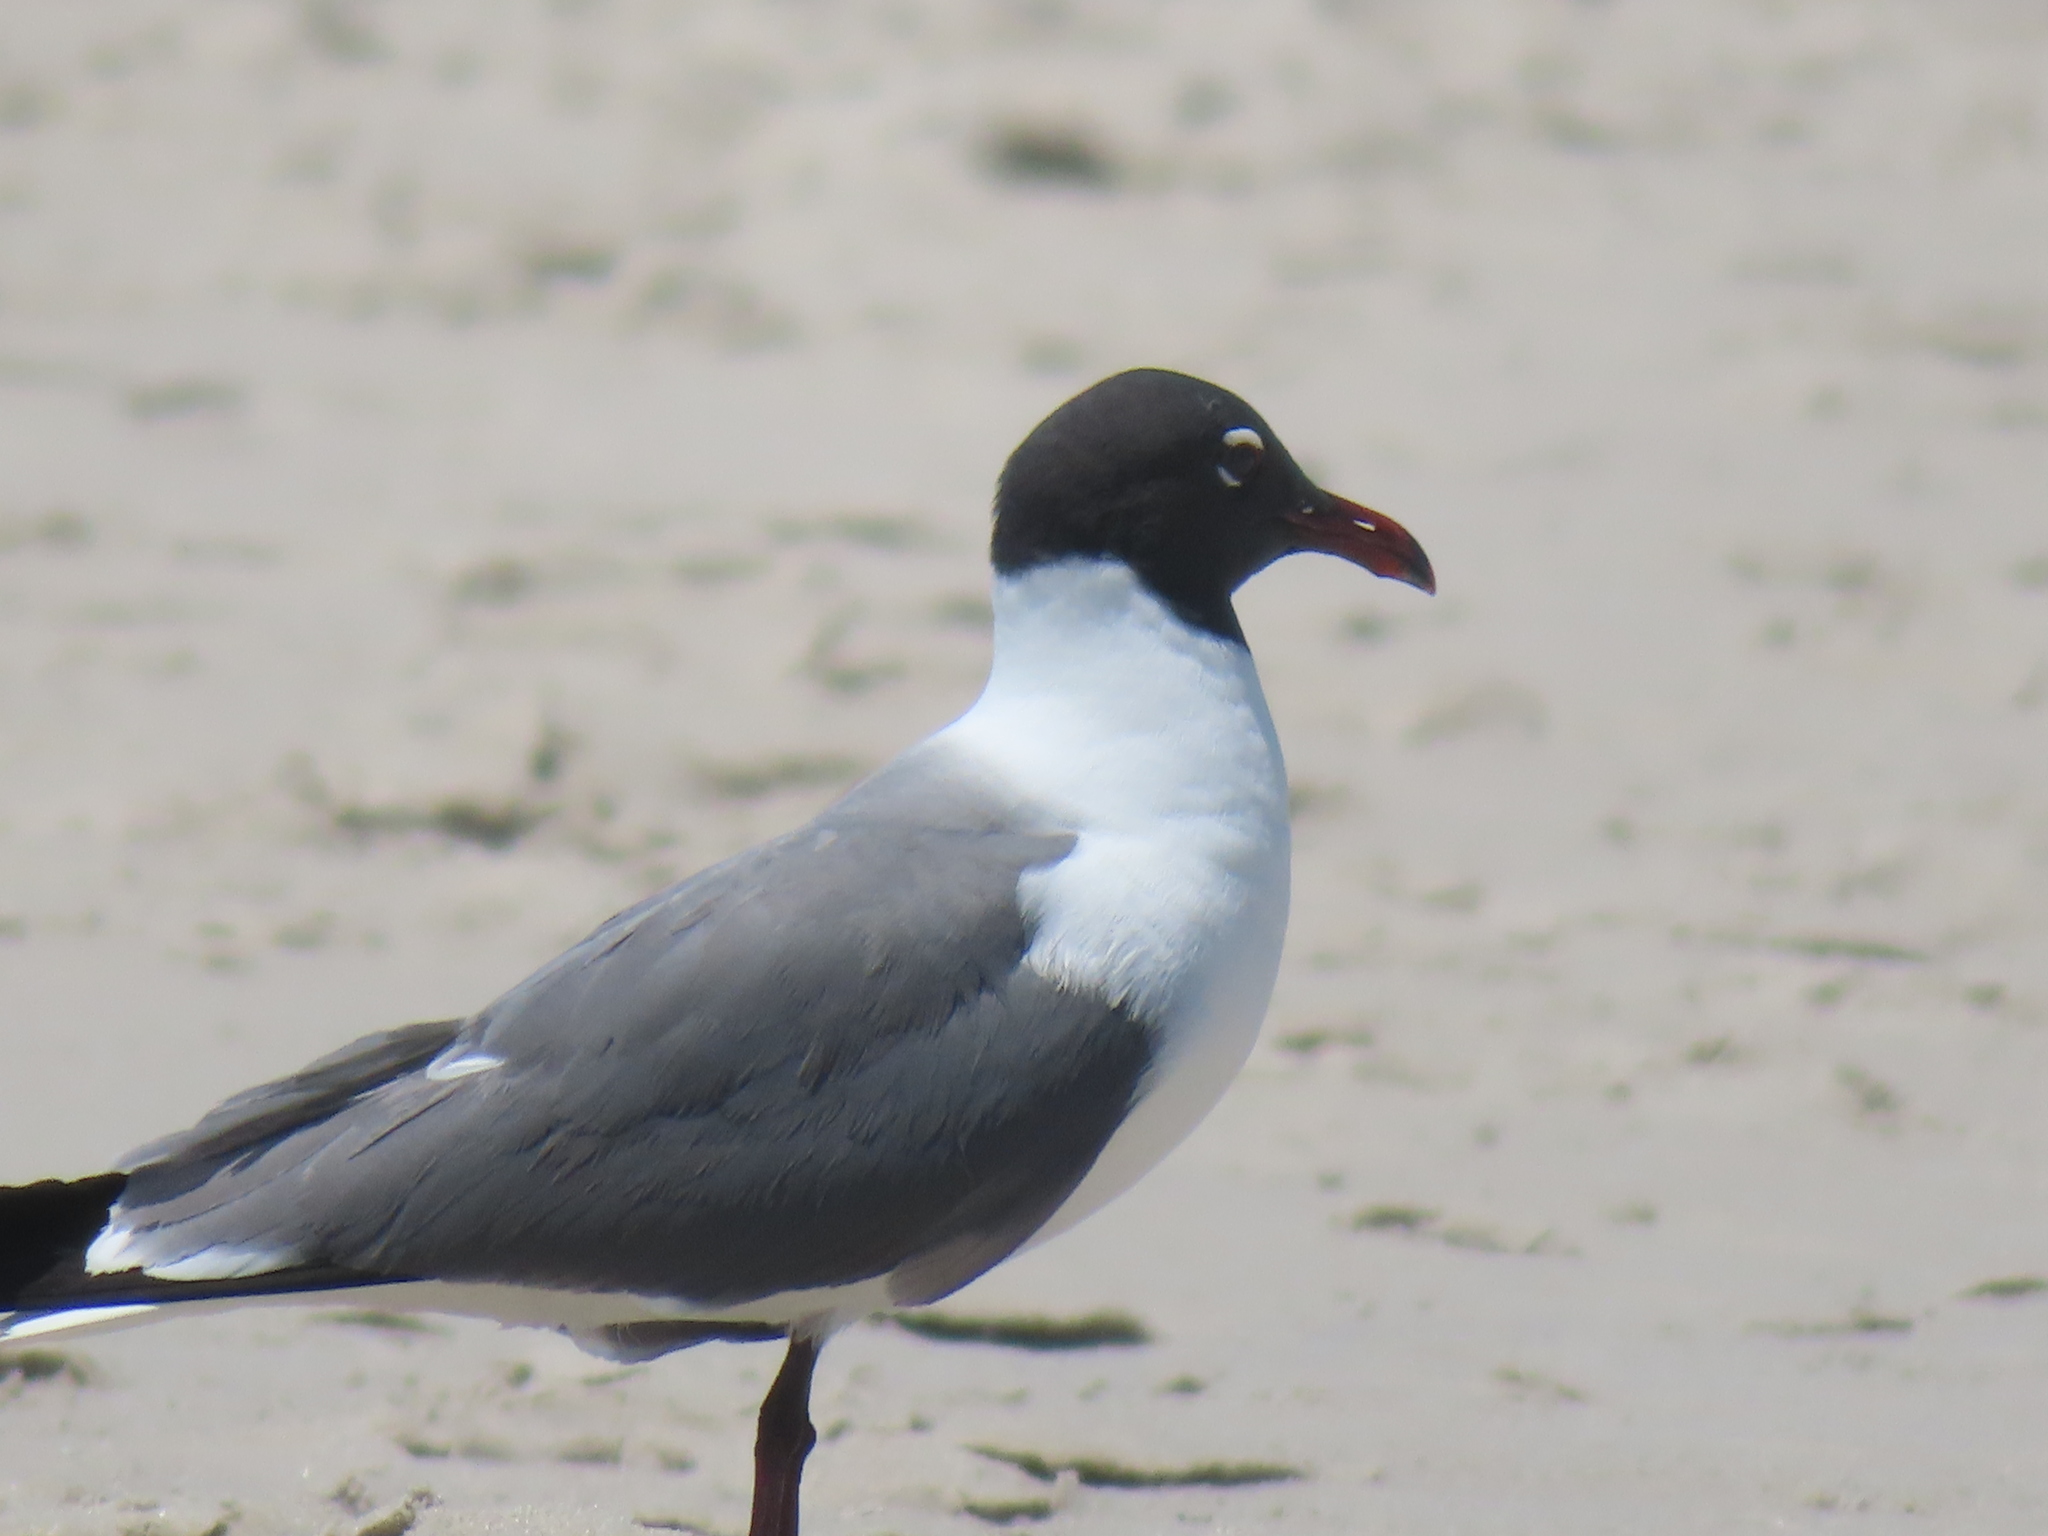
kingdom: Animalia
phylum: Chordata
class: Aves
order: Charadriiformes
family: Laridae
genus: Leucophaeus
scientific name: Leucophaeus atricilla
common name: Laughing gull
